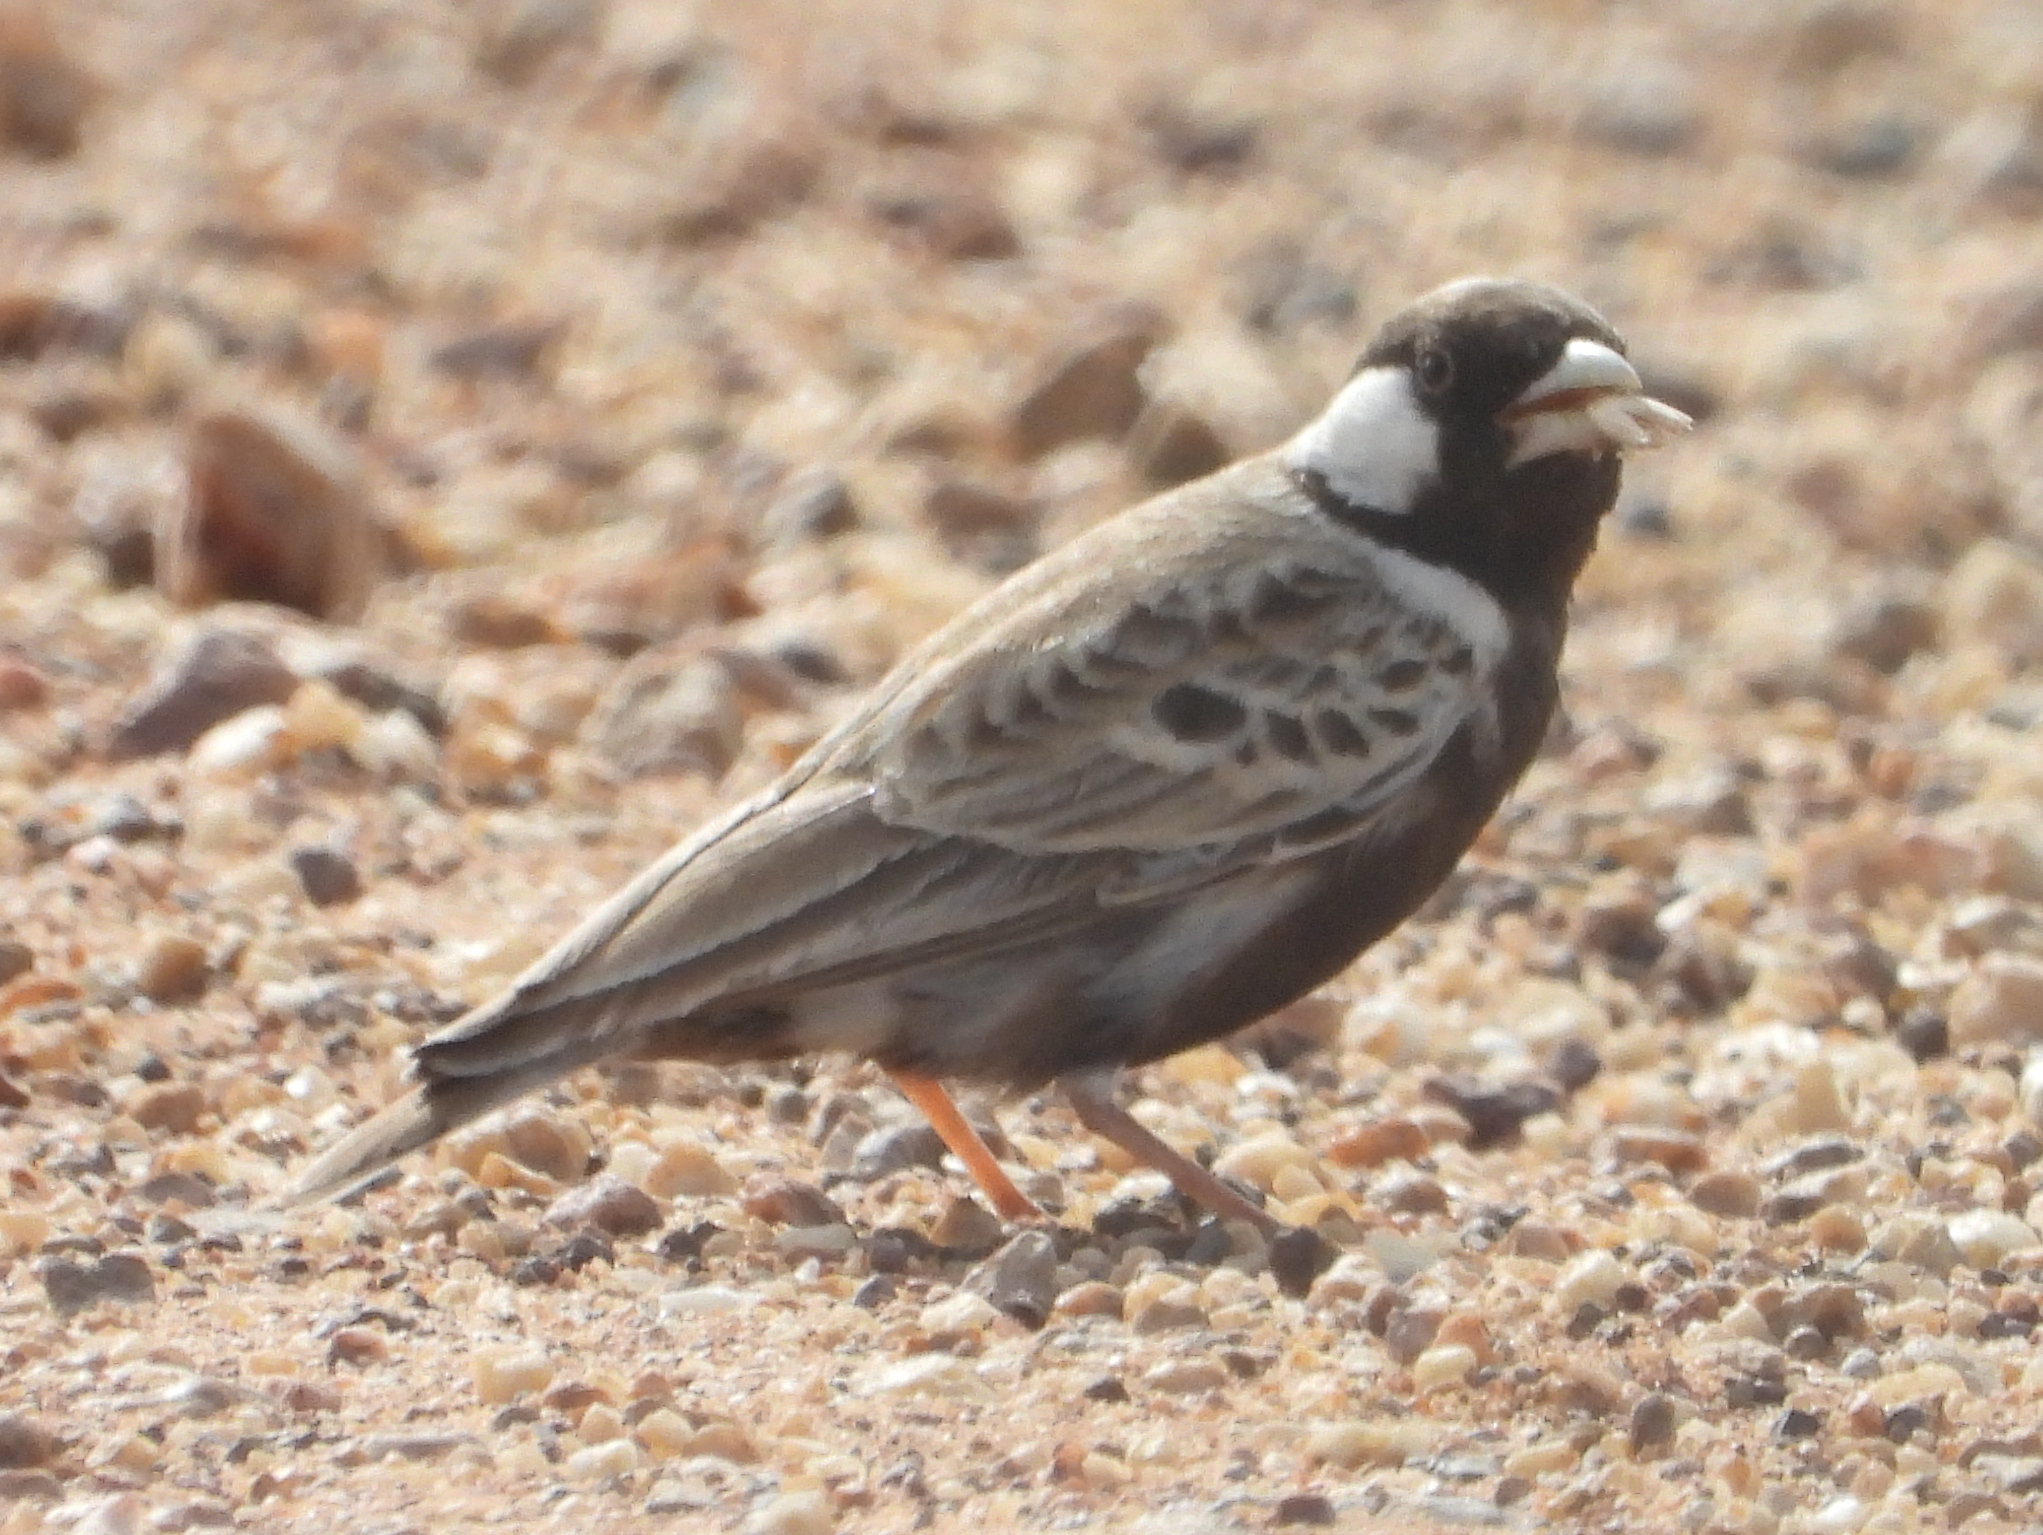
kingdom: Animalia
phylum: Chordata
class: Aves
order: Passeriformes
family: Alaudidae
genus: Eremopterix
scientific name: Eremopterix verticalis
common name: Grey-backed sparrow-lark
